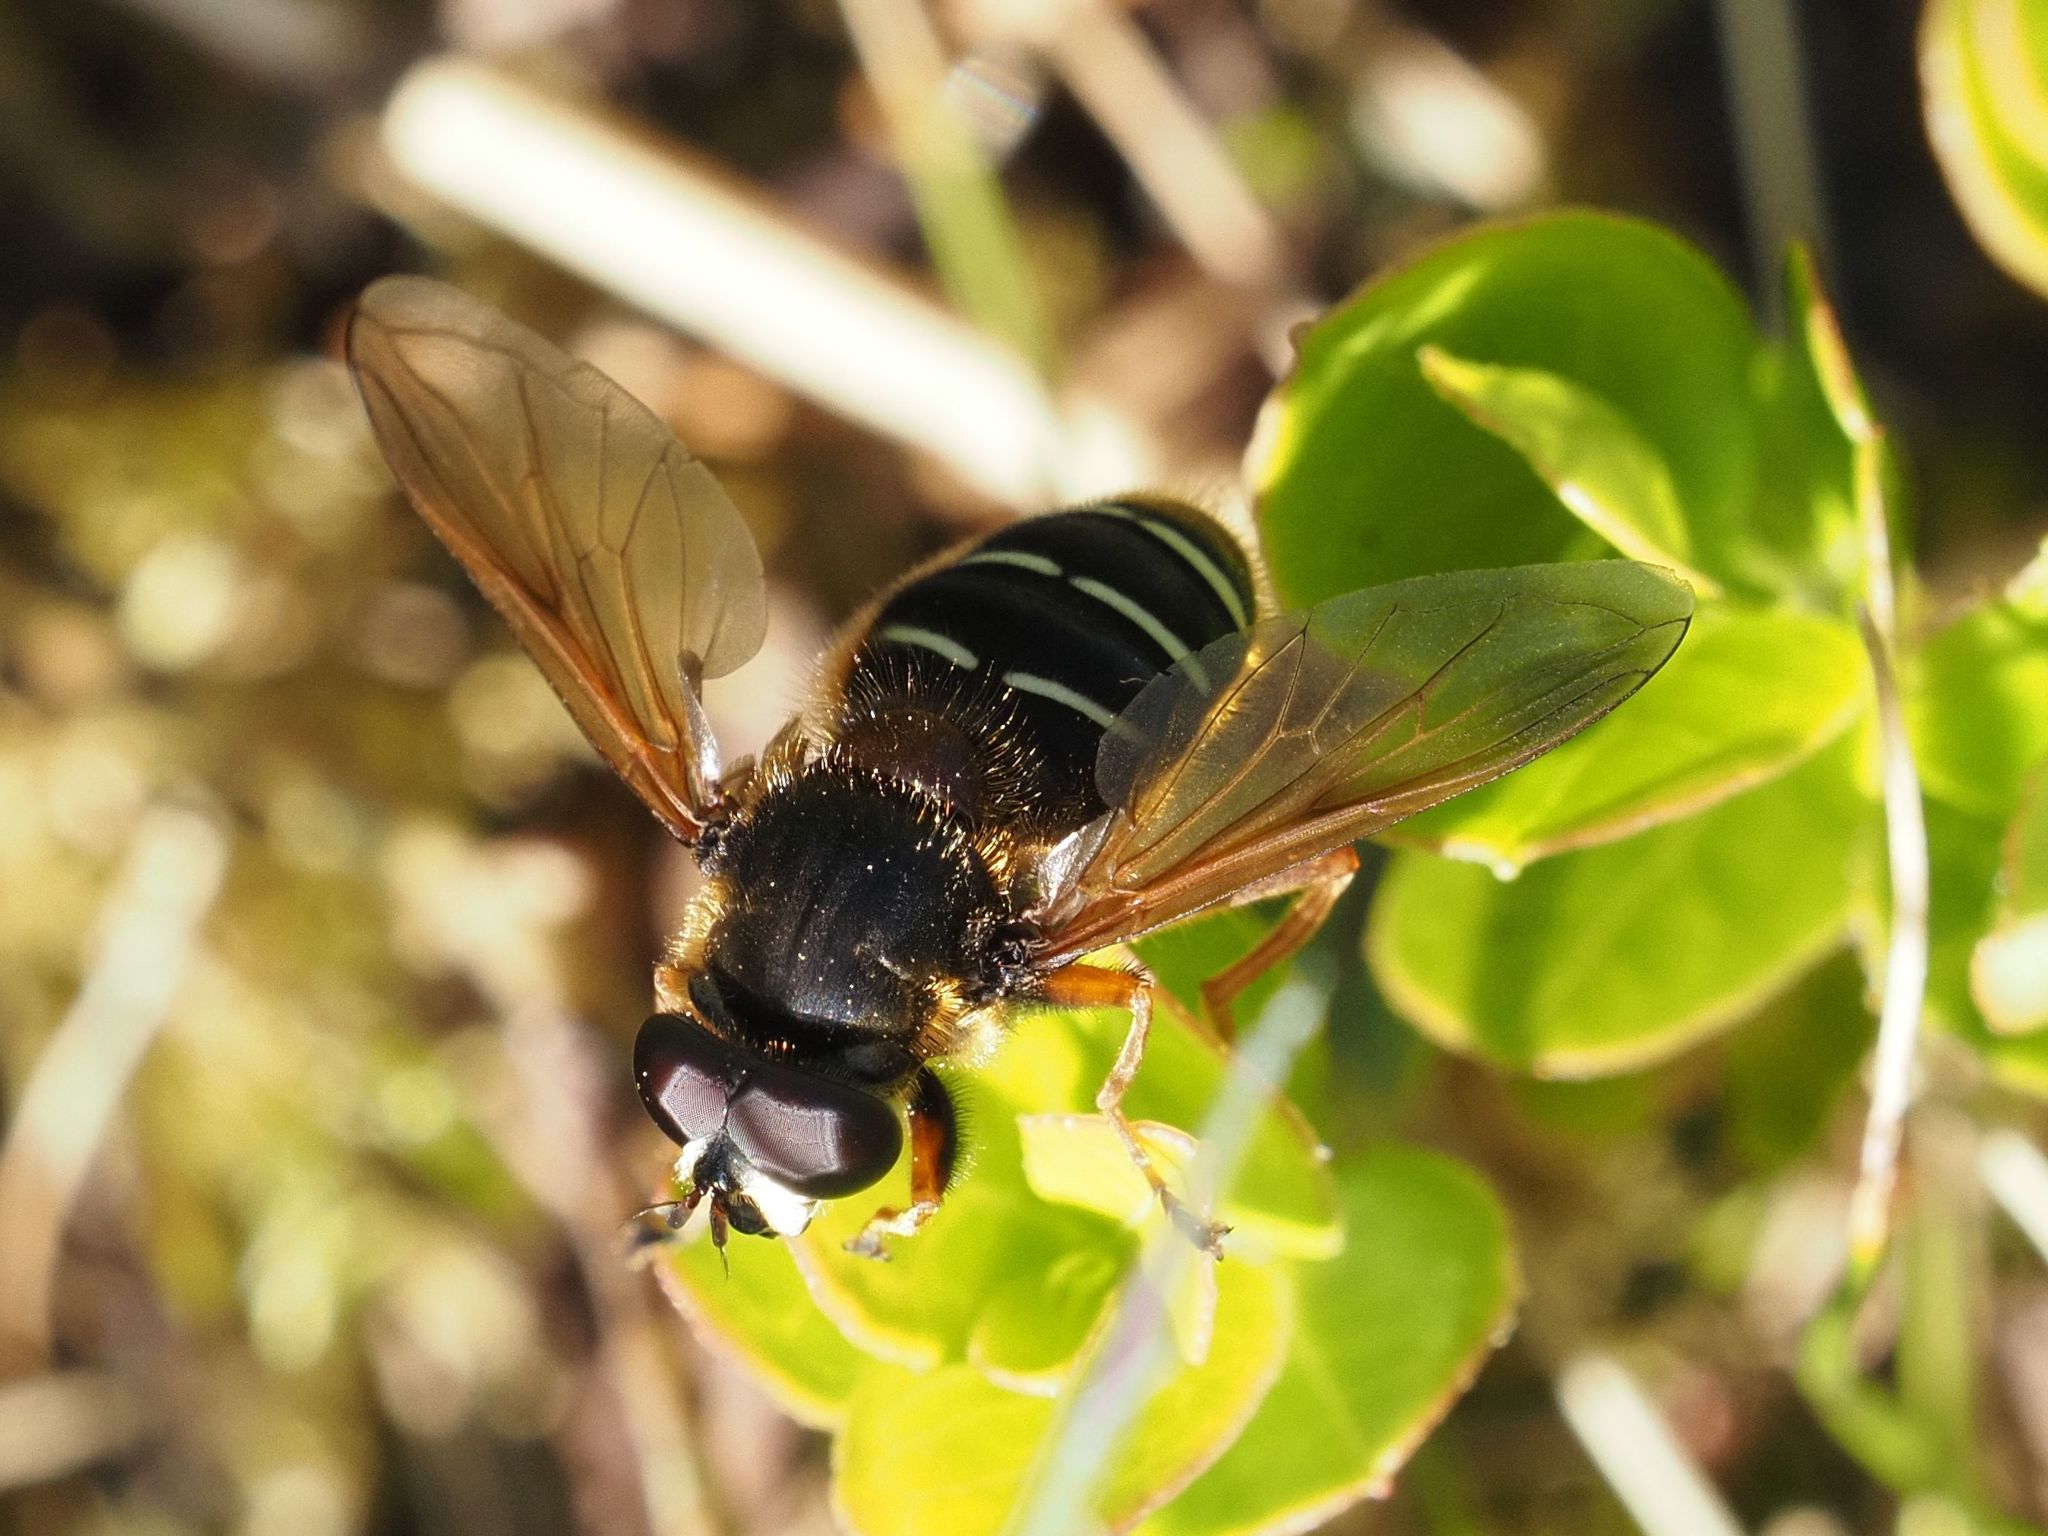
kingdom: Animalia
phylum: Arthropoda
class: Insecta
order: Diptera
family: Syrphidae
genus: Sericomyia
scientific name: Sericomyia lappona
